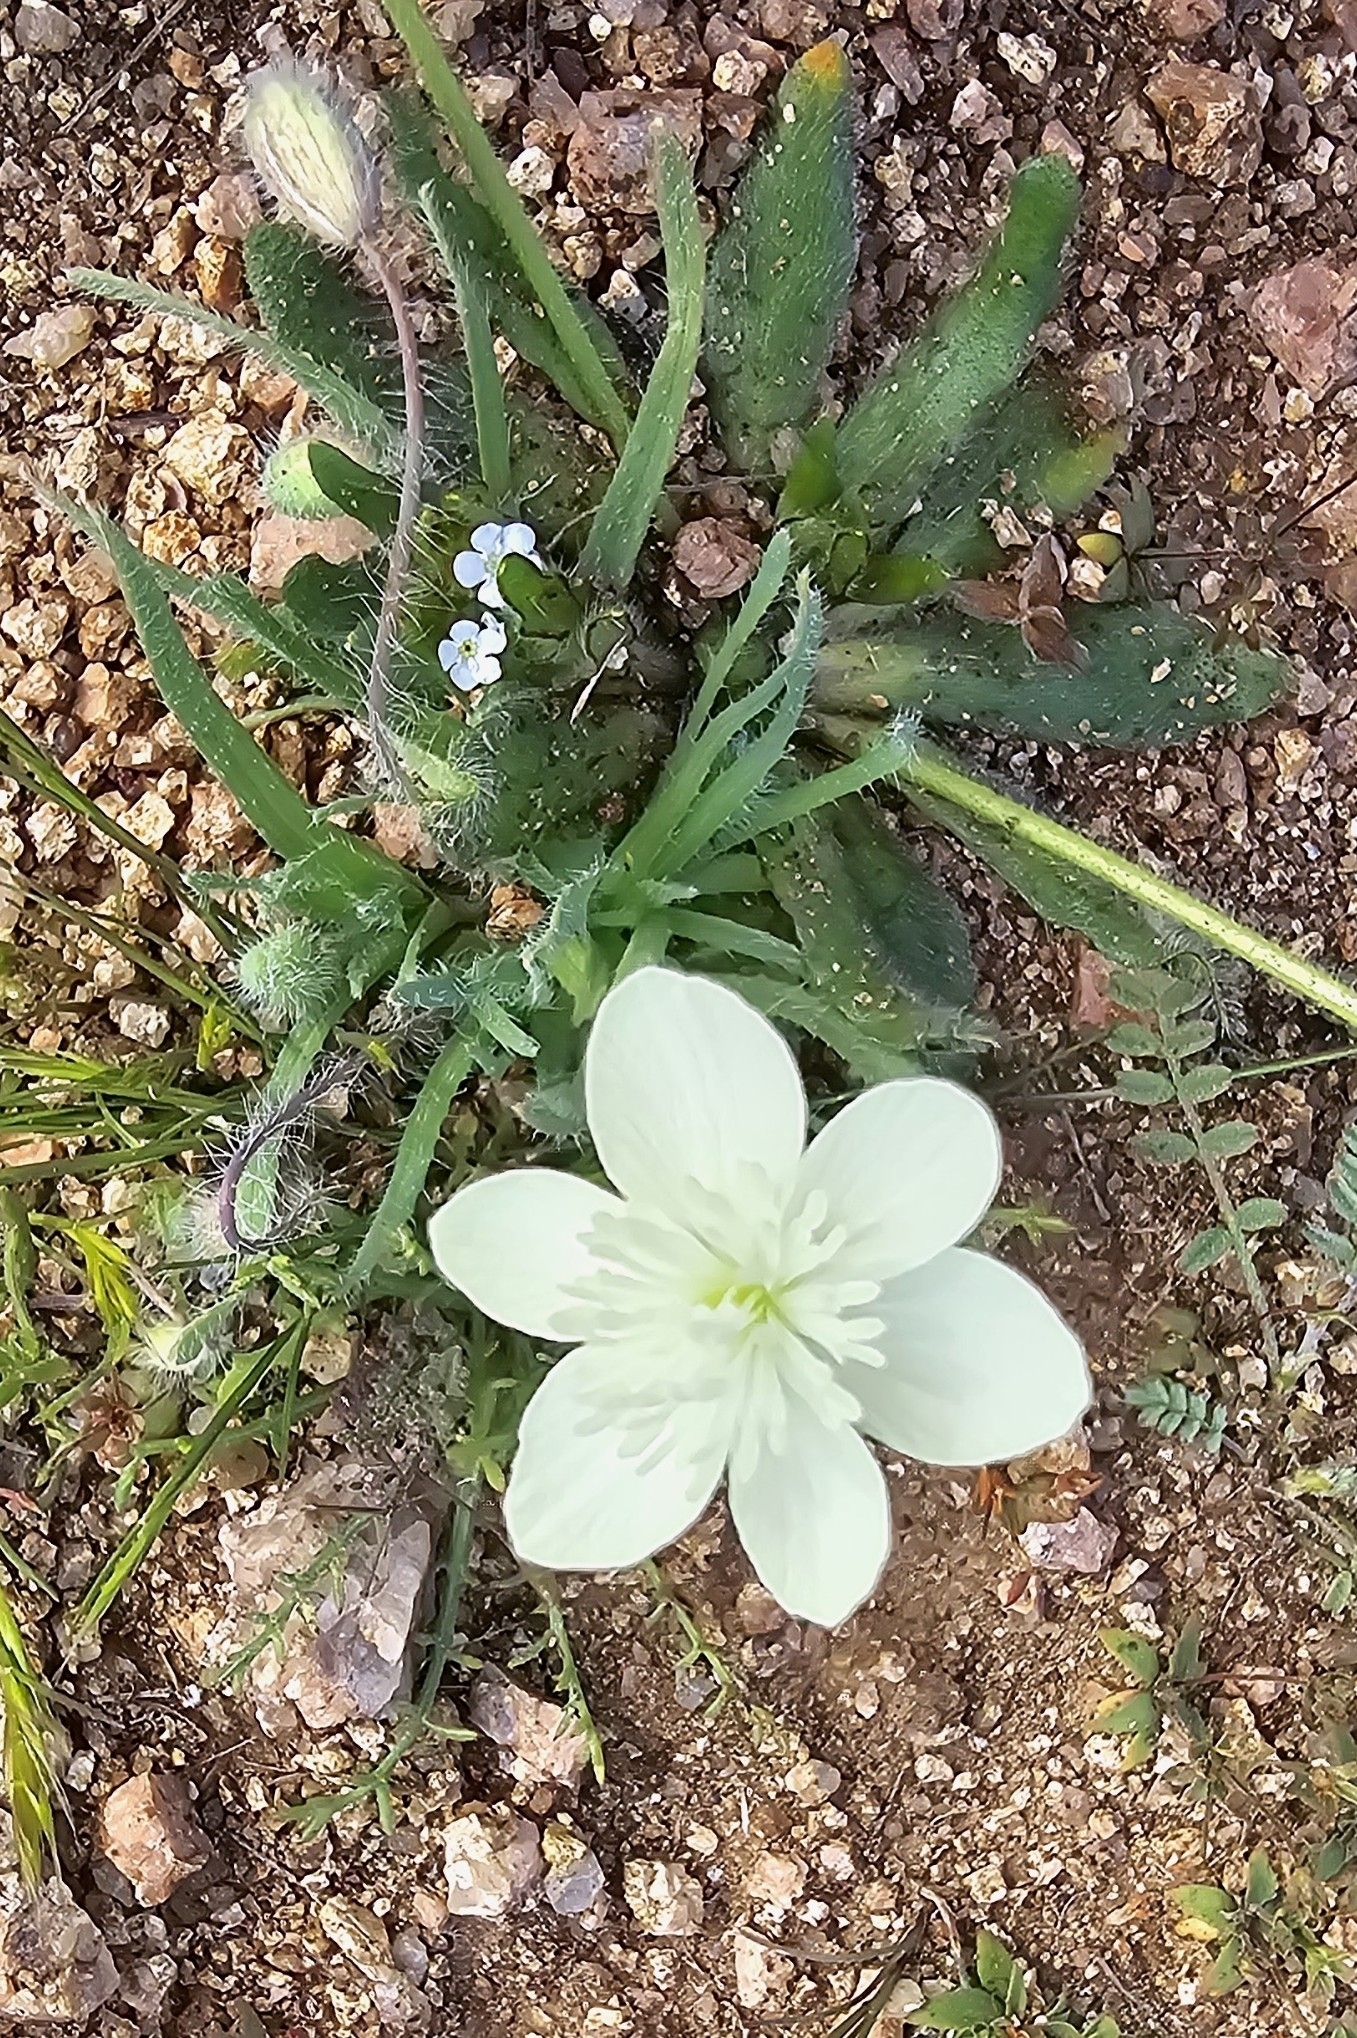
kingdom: Plantae
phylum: Tracheophyta
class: Magnoliopsida
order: Ranunculales
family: Papaveraceae
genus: Platystemon
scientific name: Platystemon californicus
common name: Cream-cups
